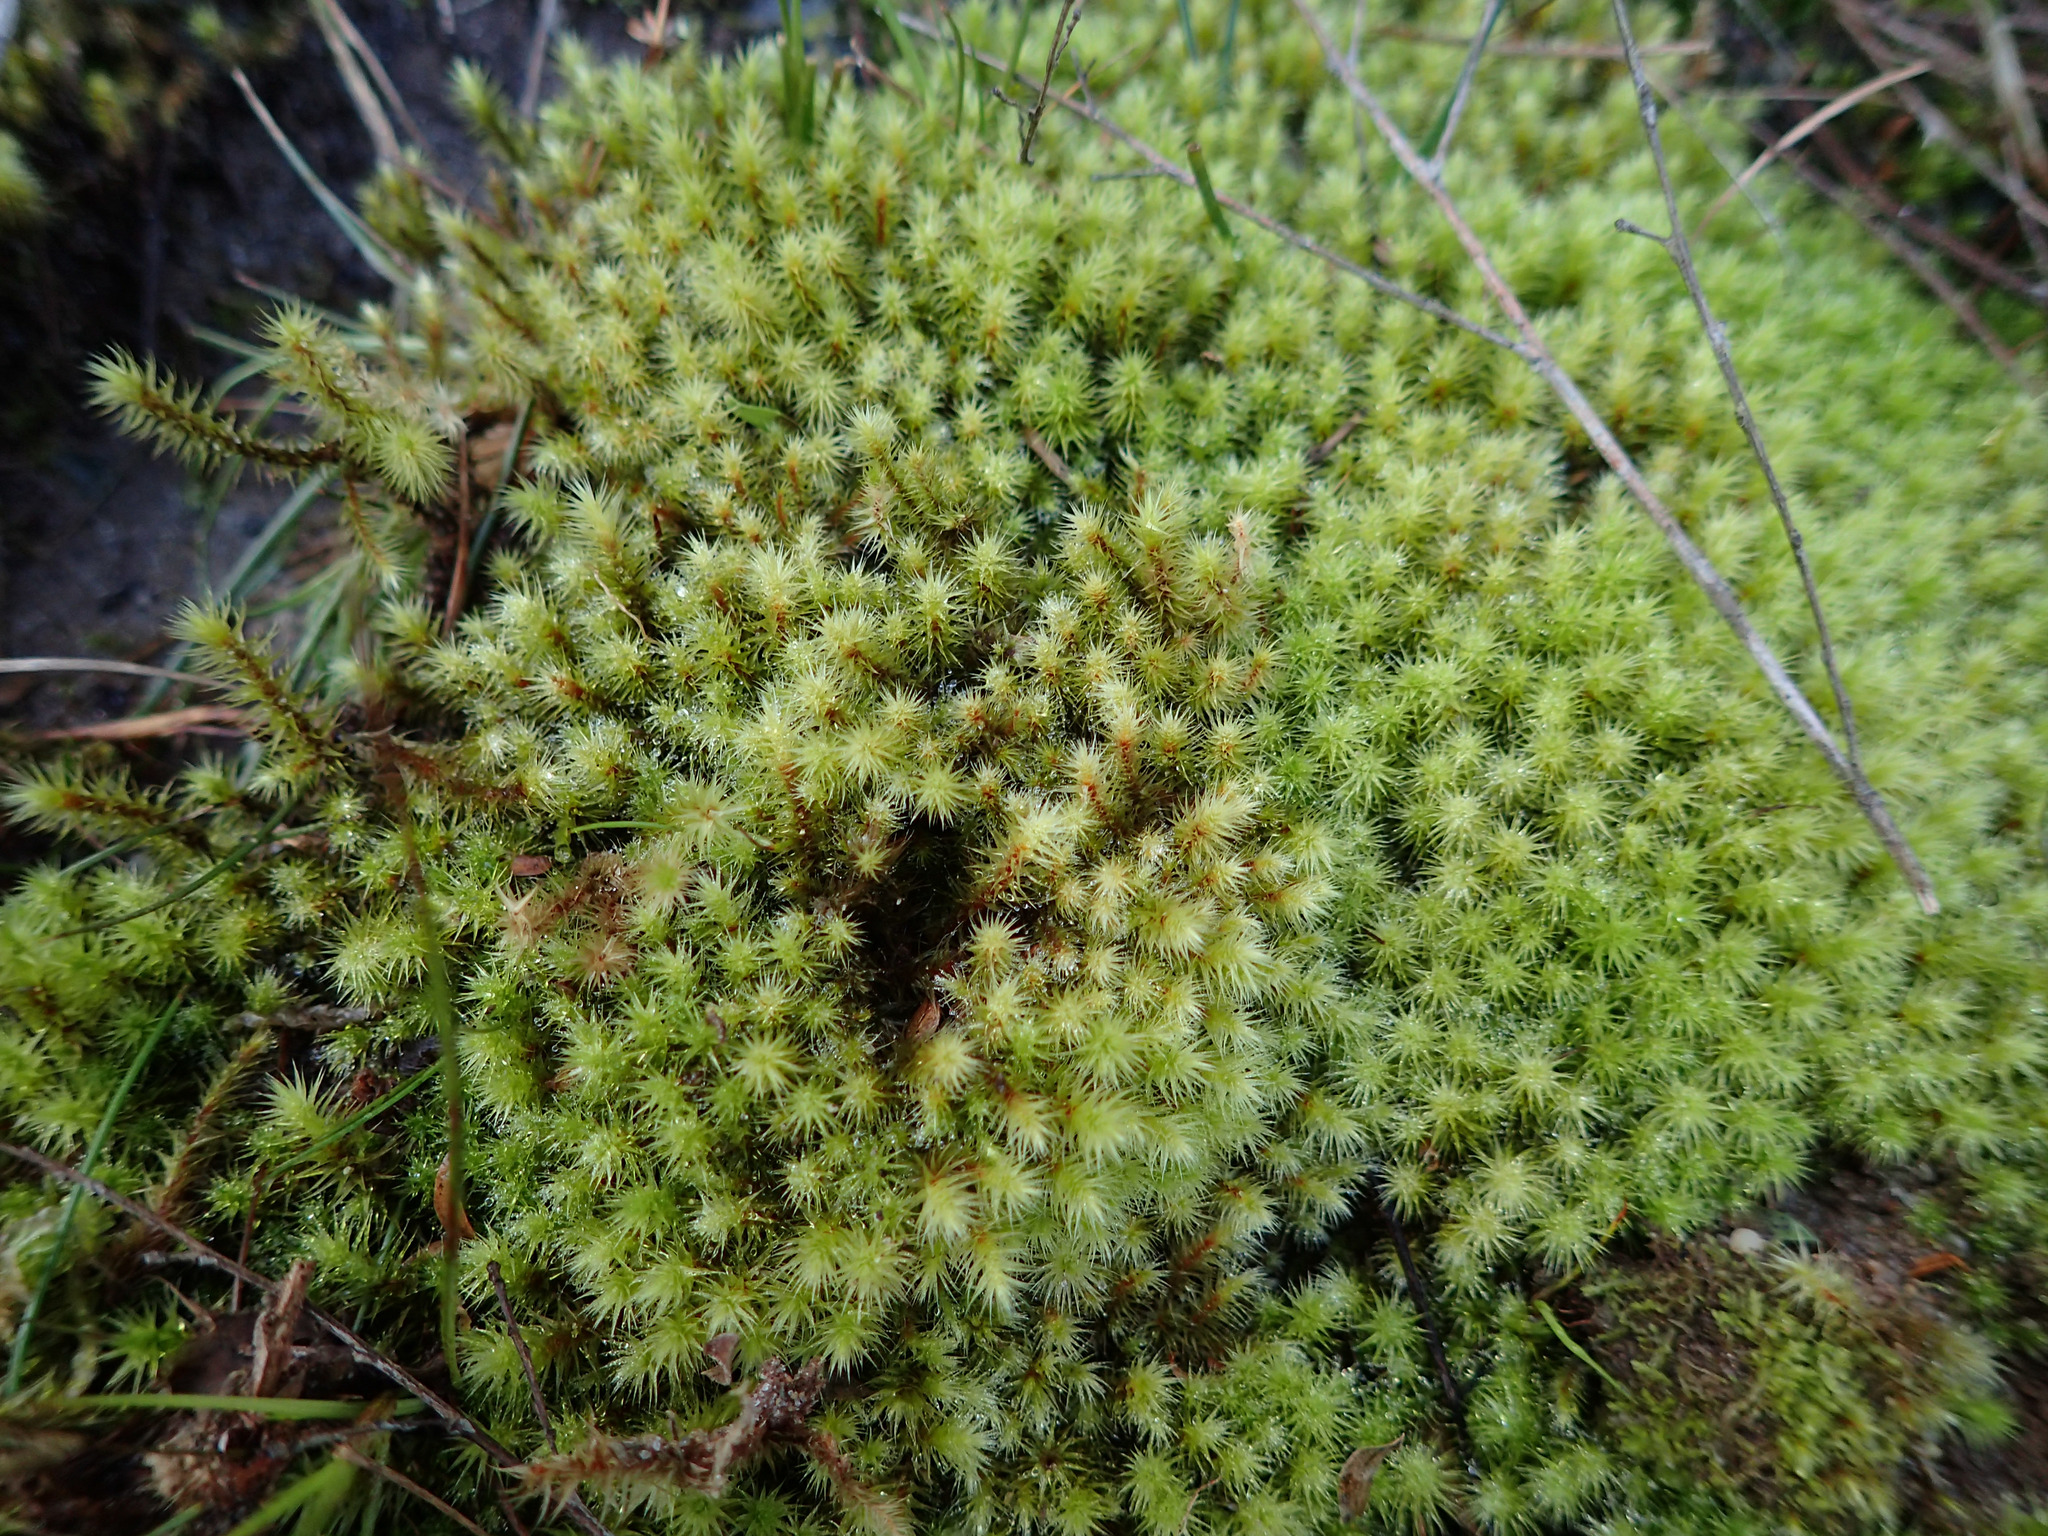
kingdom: Plantae
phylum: Bryophyta
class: Bryopsida
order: Bartramiales
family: Bartramiaceae
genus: Breutelia
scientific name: Breutelia pendula
